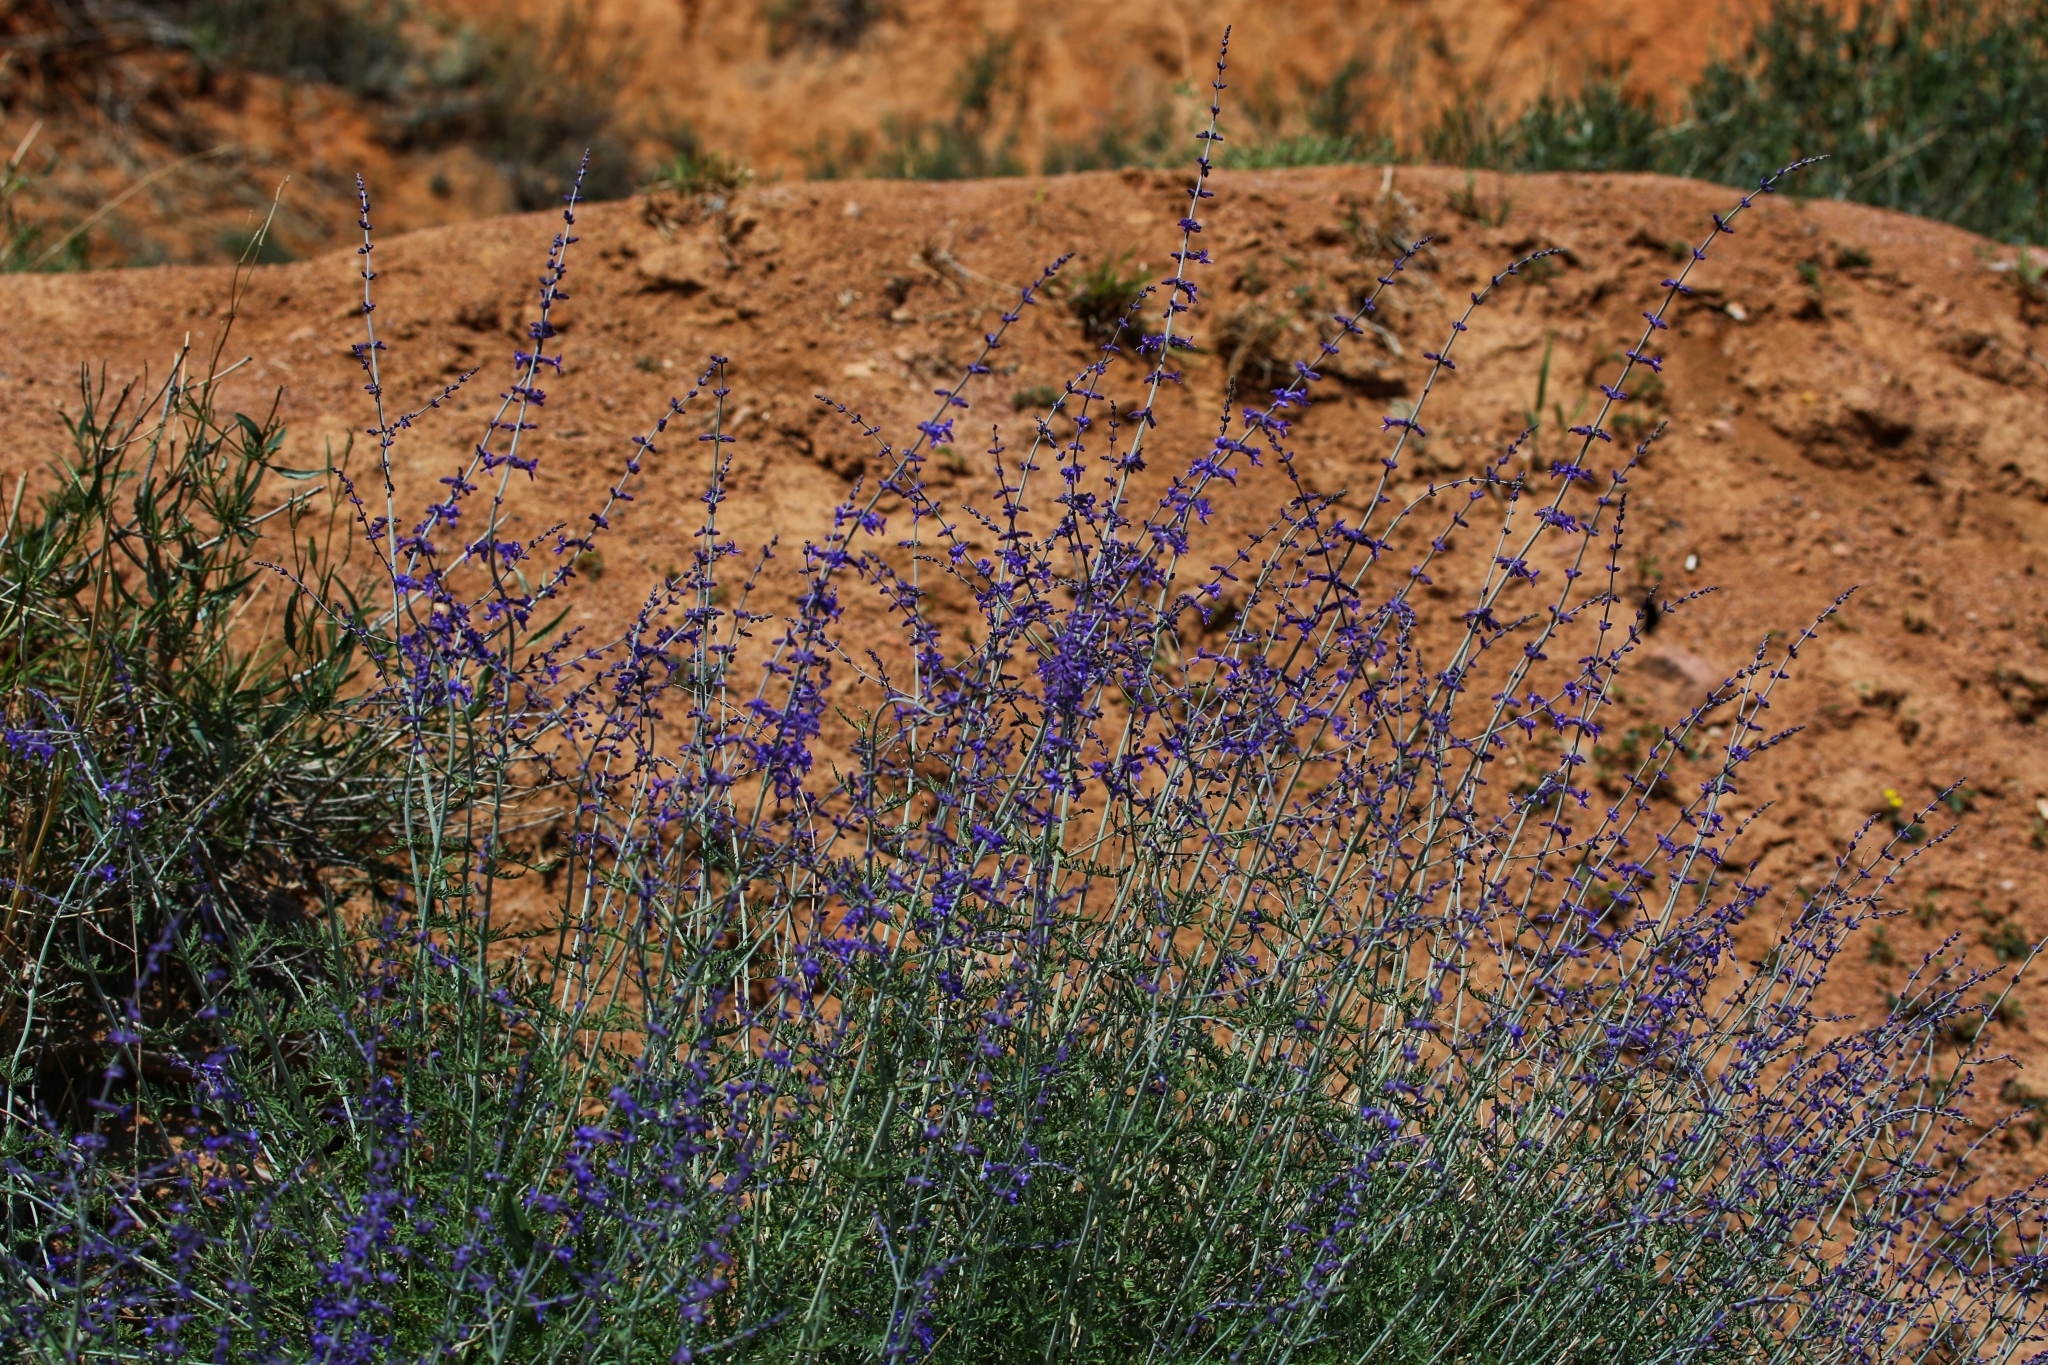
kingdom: Plantae
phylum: Tracheophyta
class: Magnoliopsida
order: Lamiales
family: Lamiaceae
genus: Salvia
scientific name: Salvia abrotanoides
